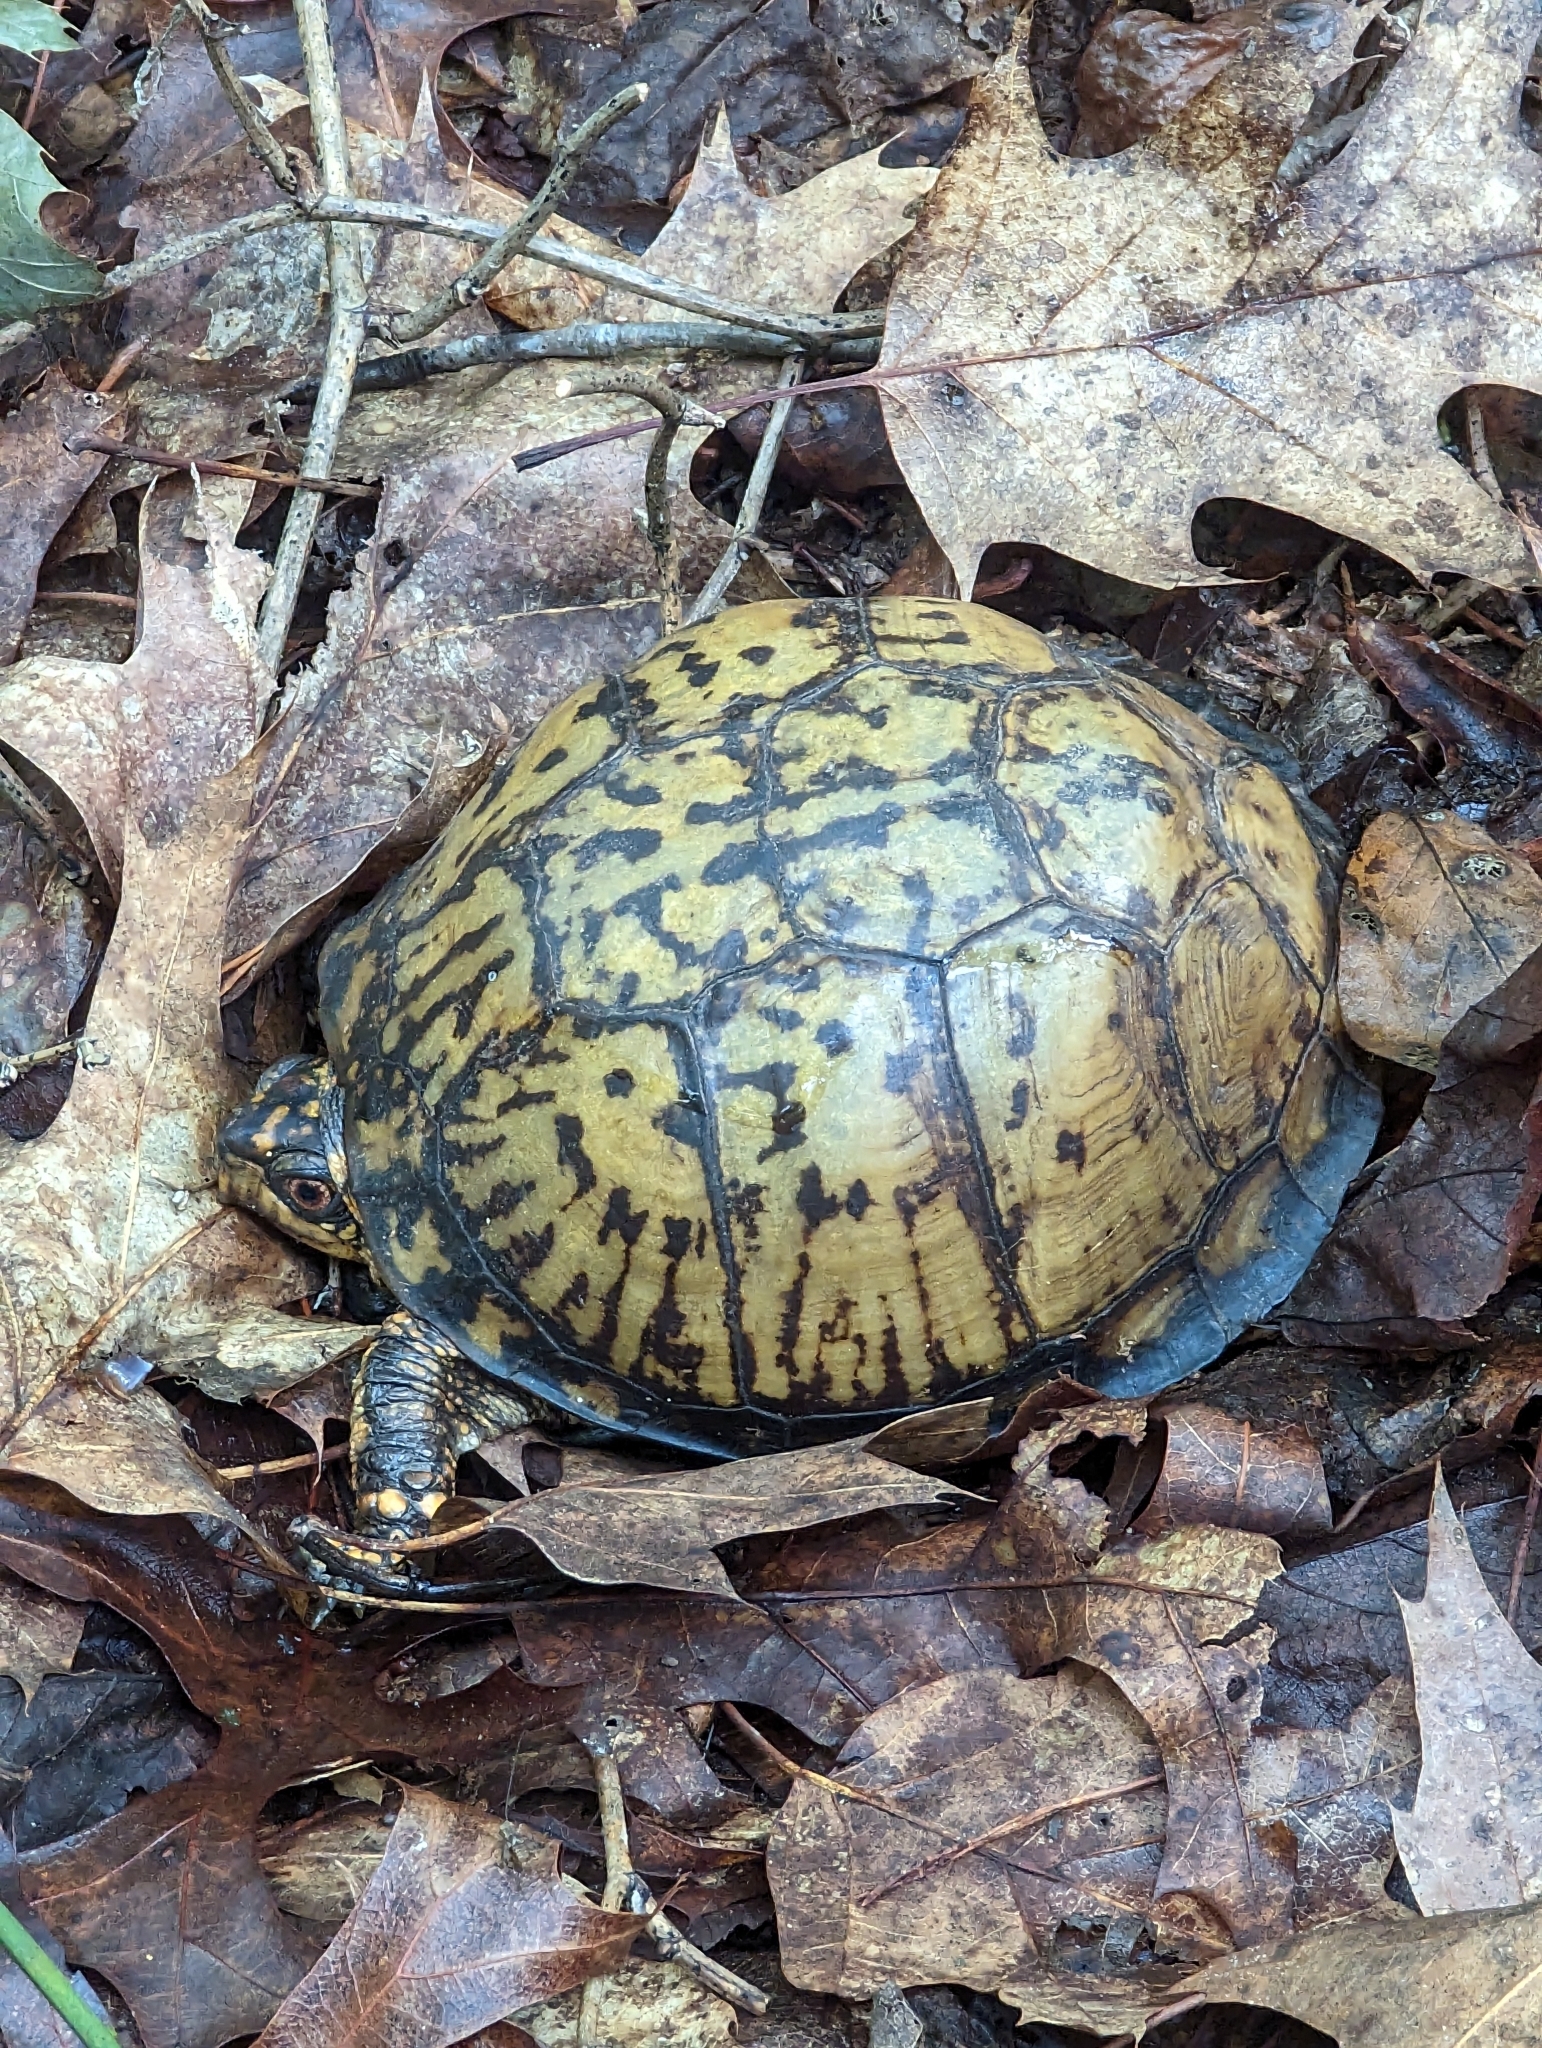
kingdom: Animalia
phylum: Chordata
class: Testudines
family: Emydidae
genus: Terrapene
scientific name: Terrapene carolina
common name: Common box turtle
